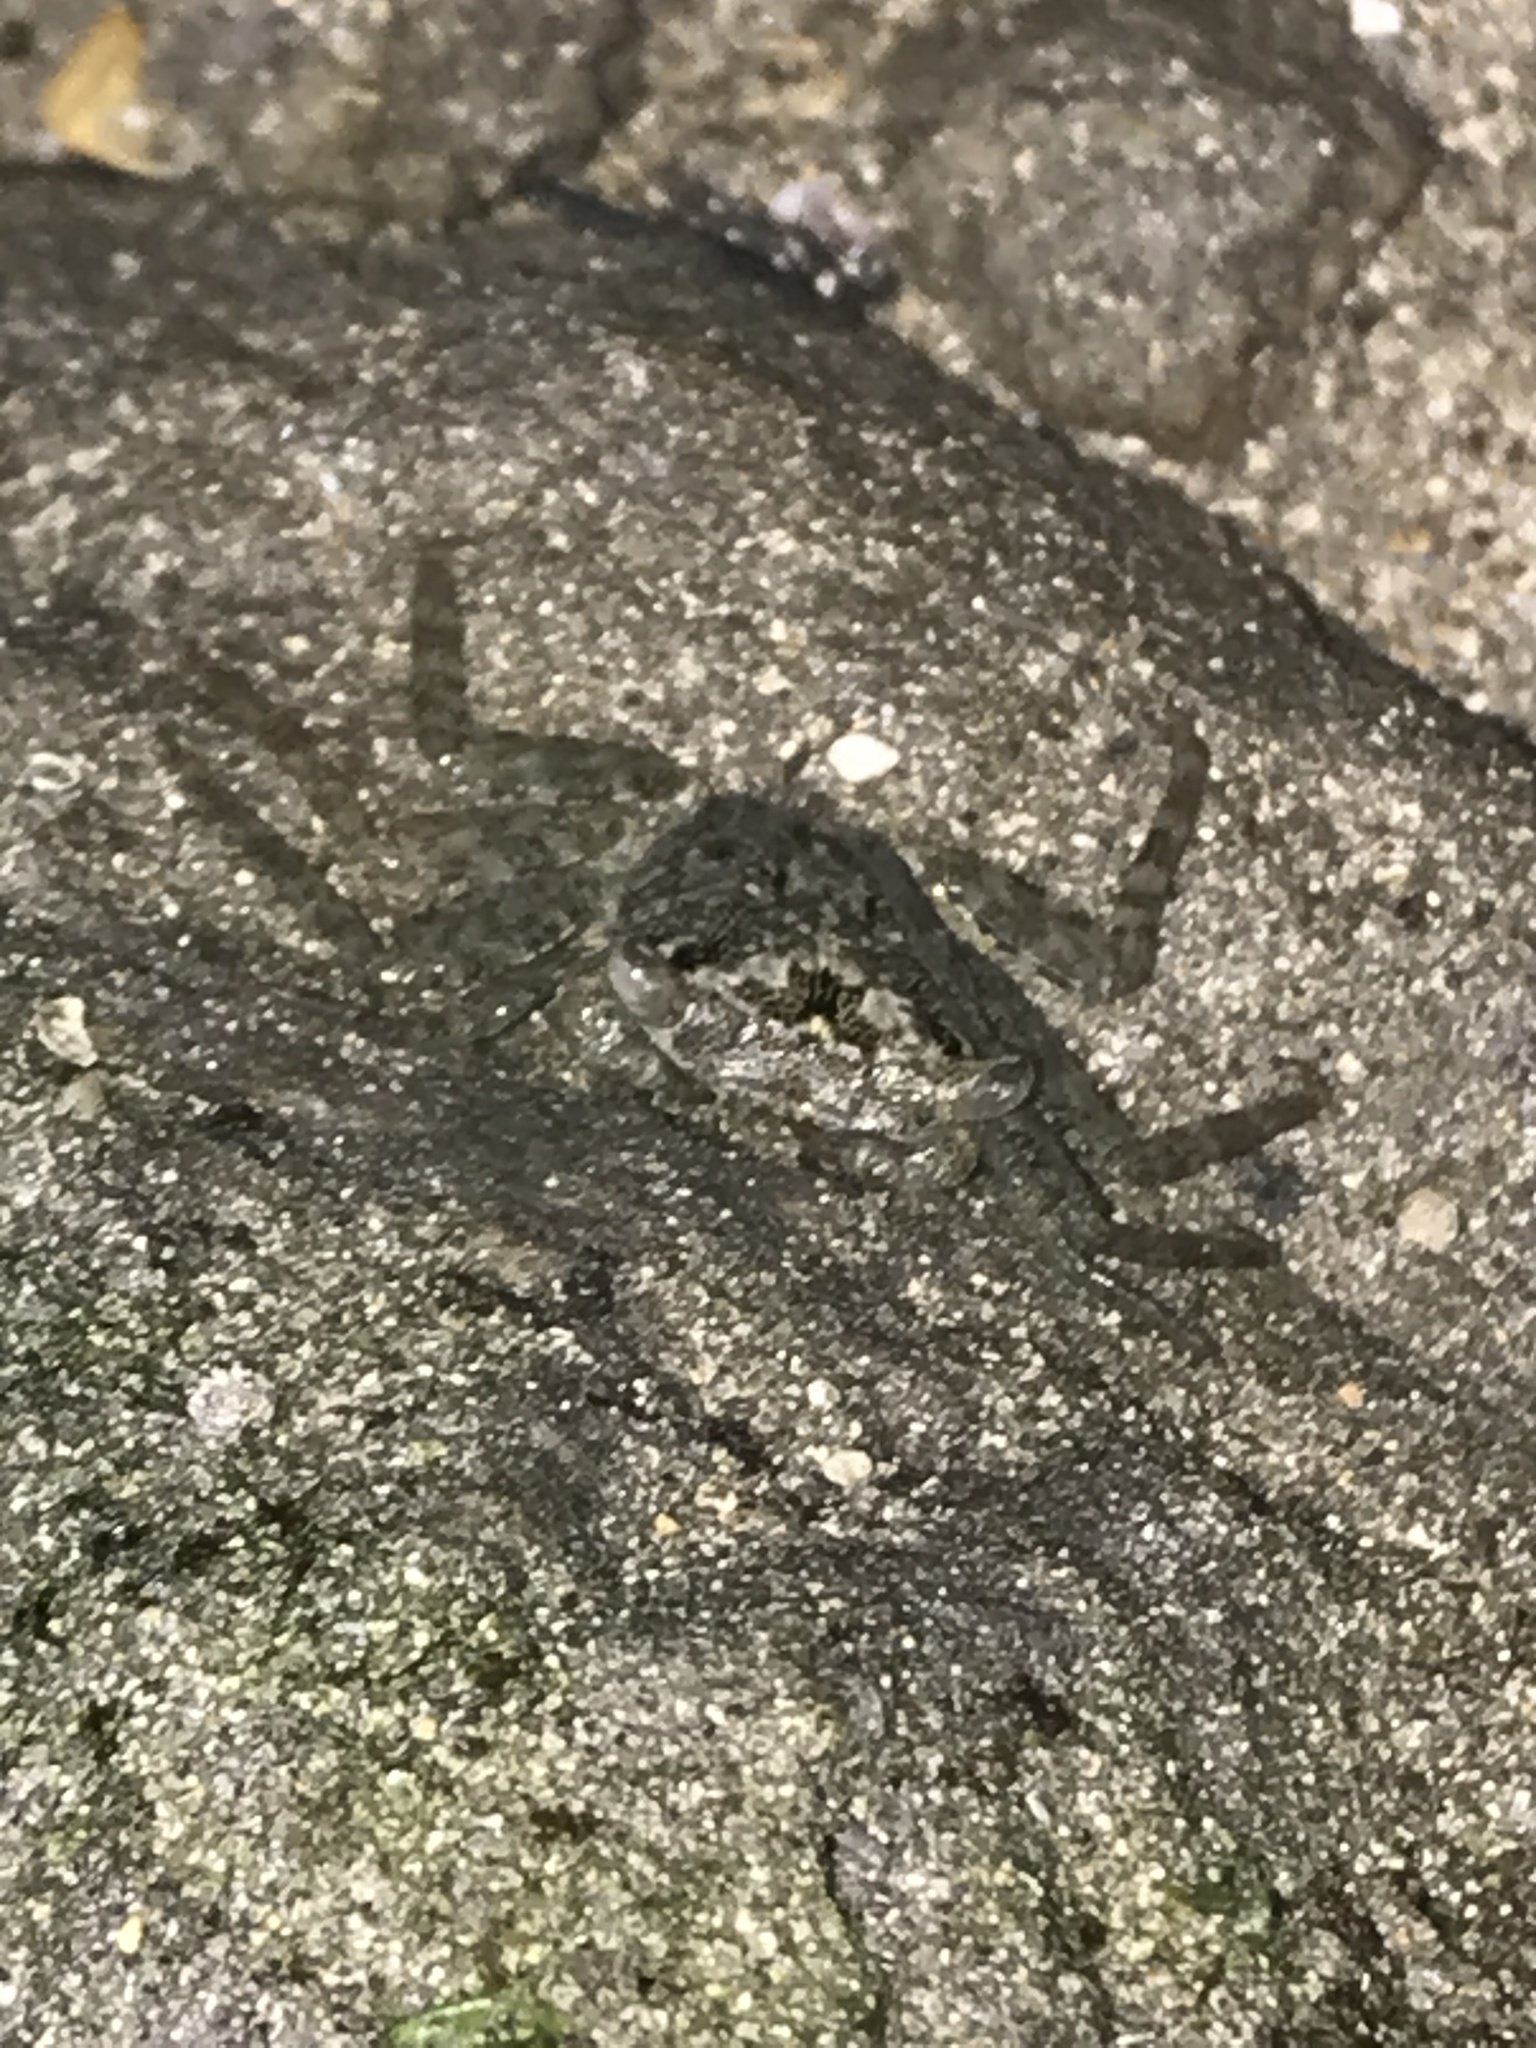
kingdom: Animalia
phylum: Arthropoda
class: Malacostraca
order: Decapoda
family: Sesarmidae
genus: Aratus
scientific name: Aratus pisonii
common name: Mangrove crab
